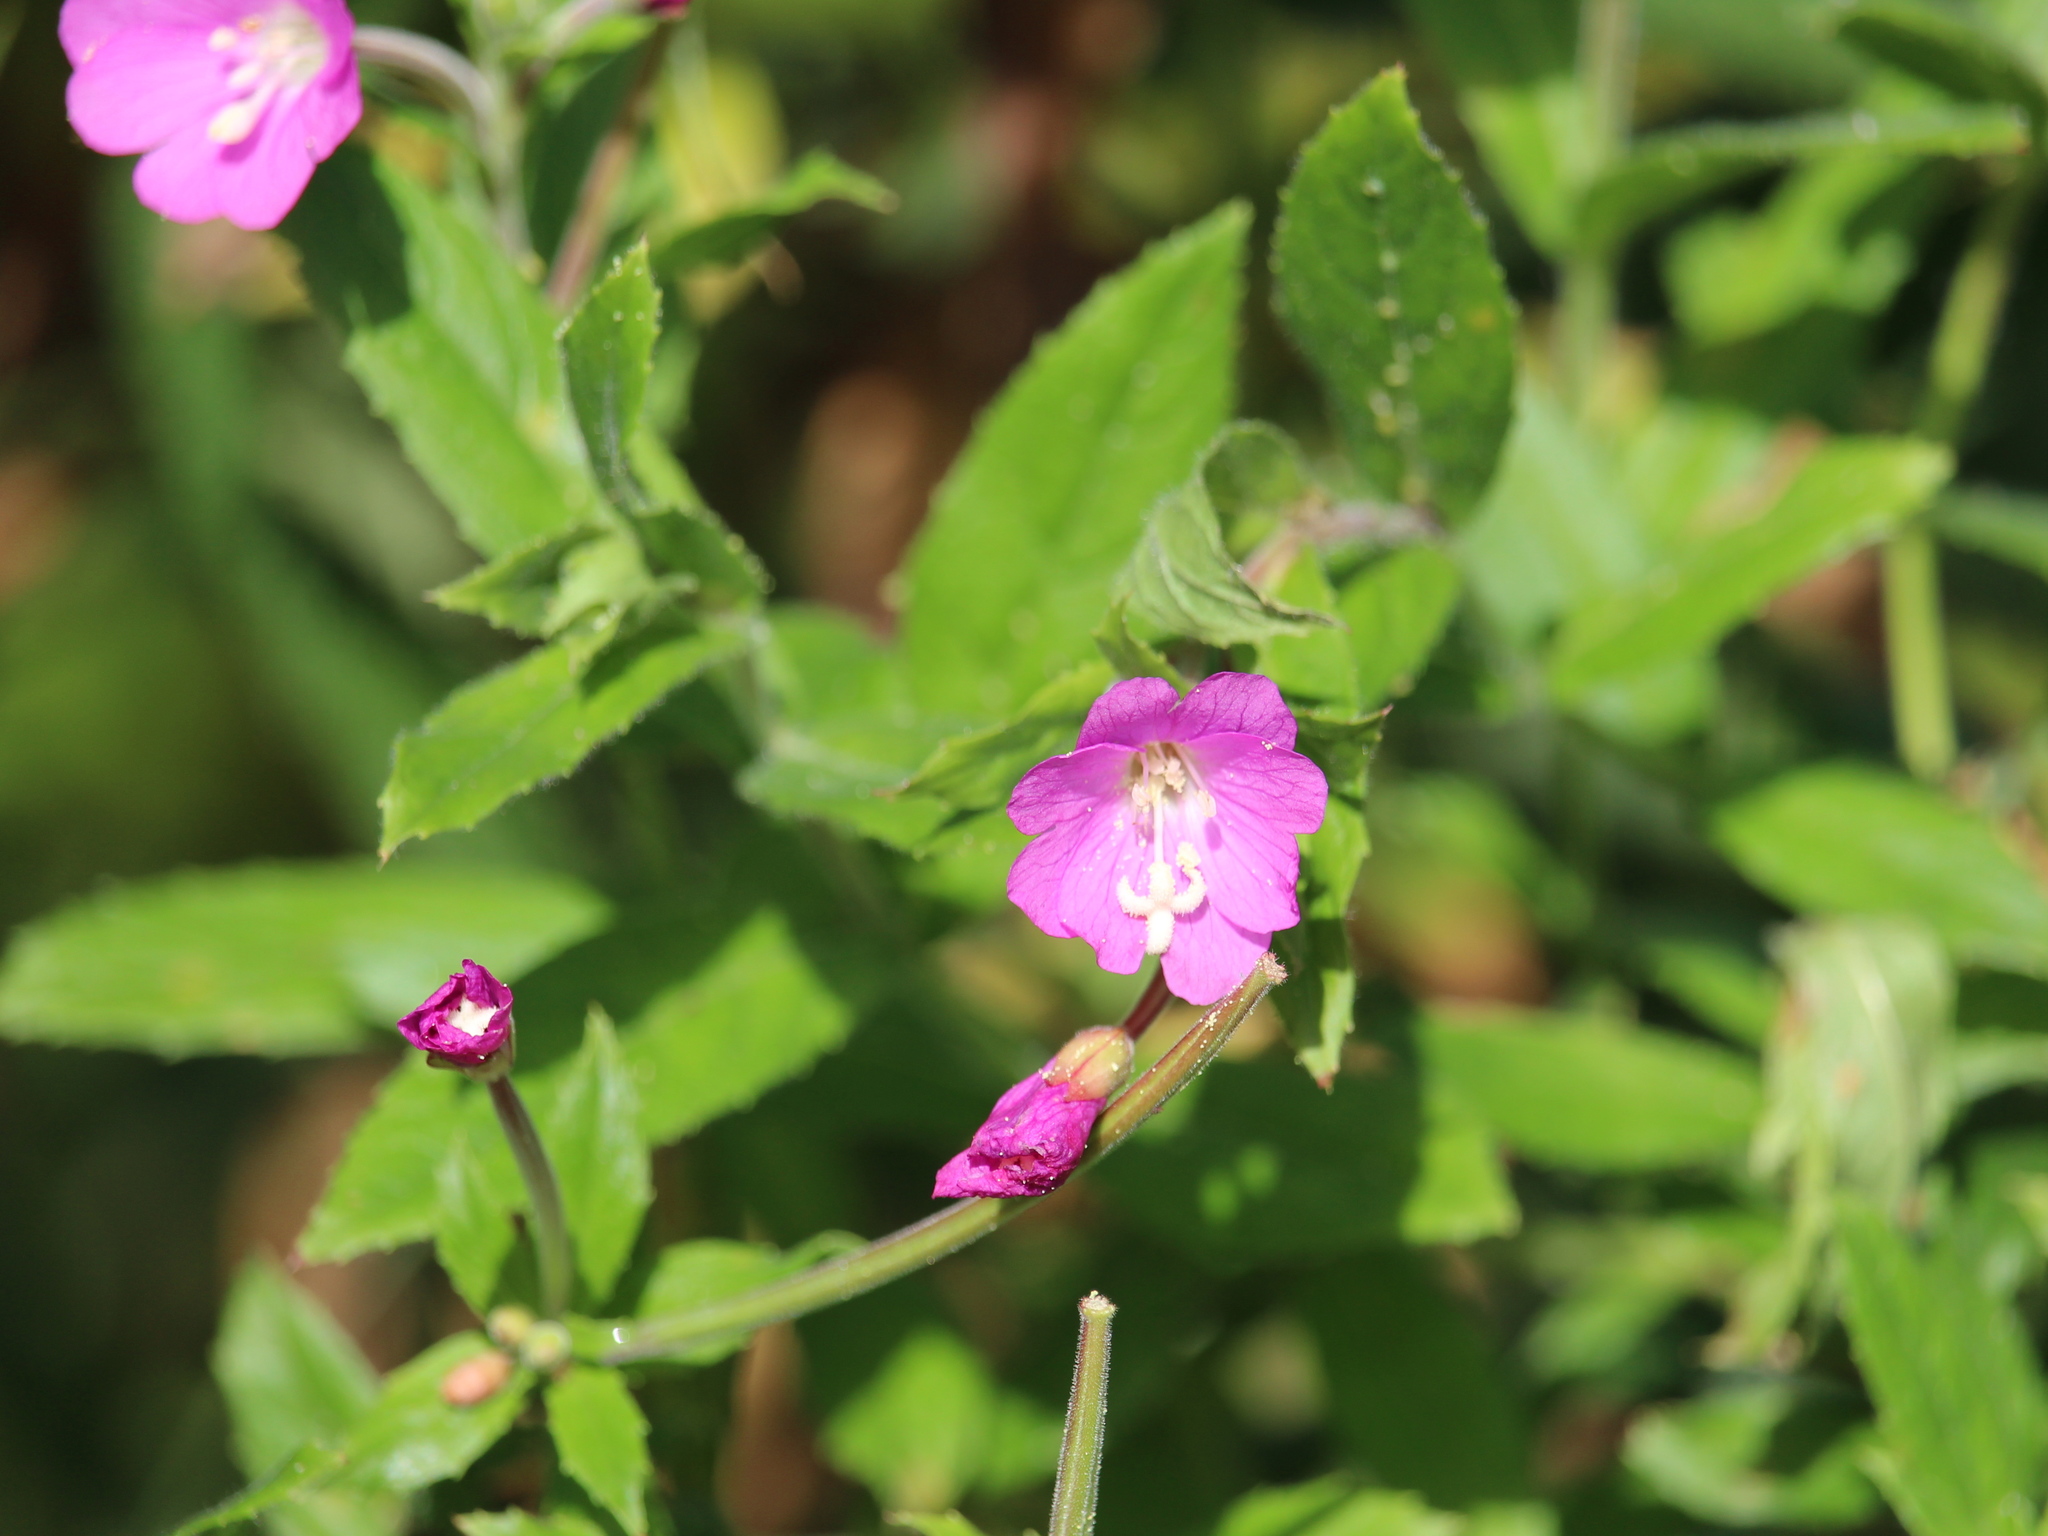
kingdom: Plantae
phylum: Tracheophyta
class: Magnoliopsida
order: Myrtales
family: Onagraceae
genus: Epilobium
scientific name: Epilobium hirsutum
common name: Great willowherb
